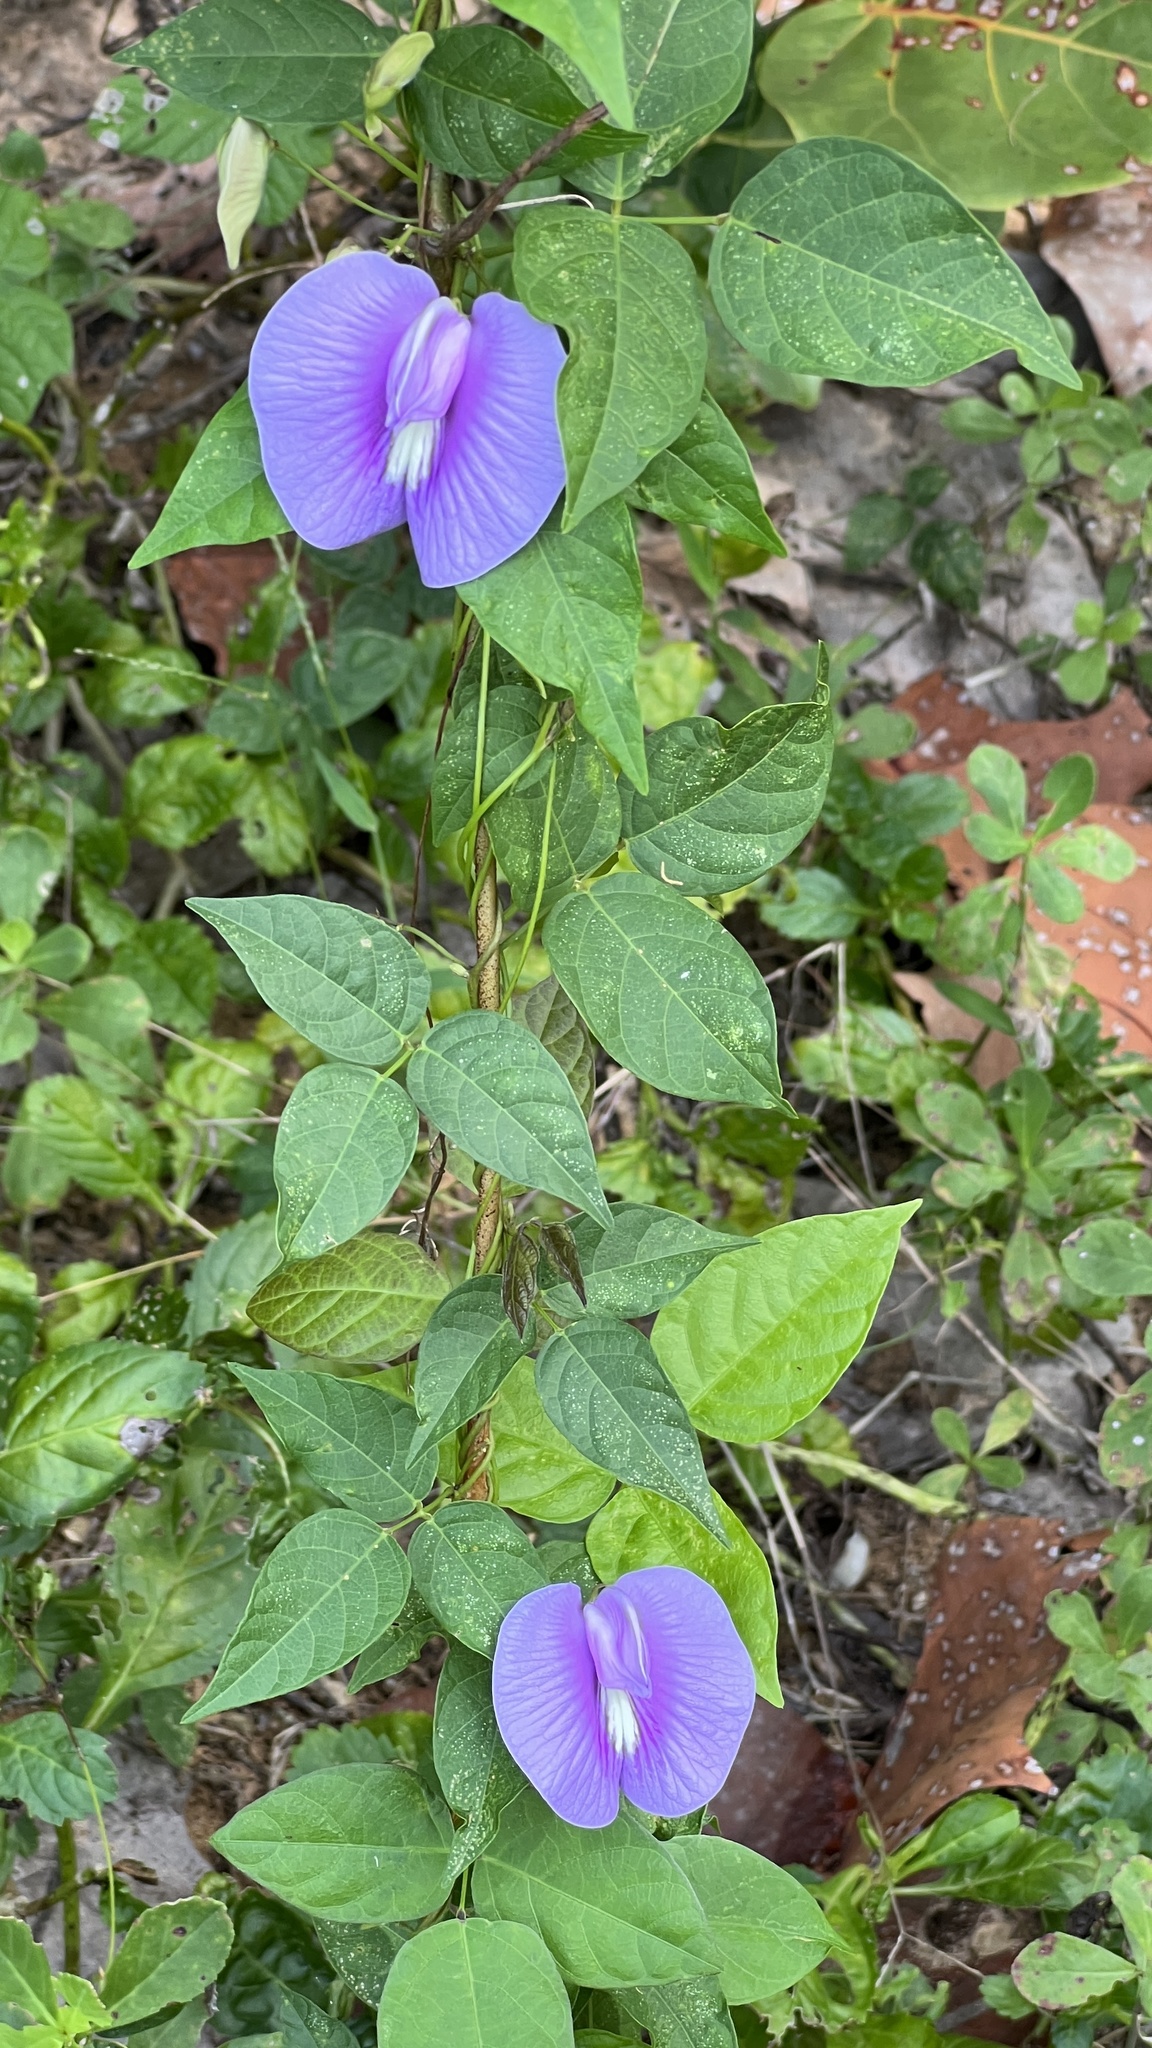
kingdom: Plantae
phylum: Tracheophyta
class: Magnoliopsida
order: Fabales
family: Fabaceae
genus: Centrosema
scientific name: Centrosema virginianum
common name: Butterfly-pea
